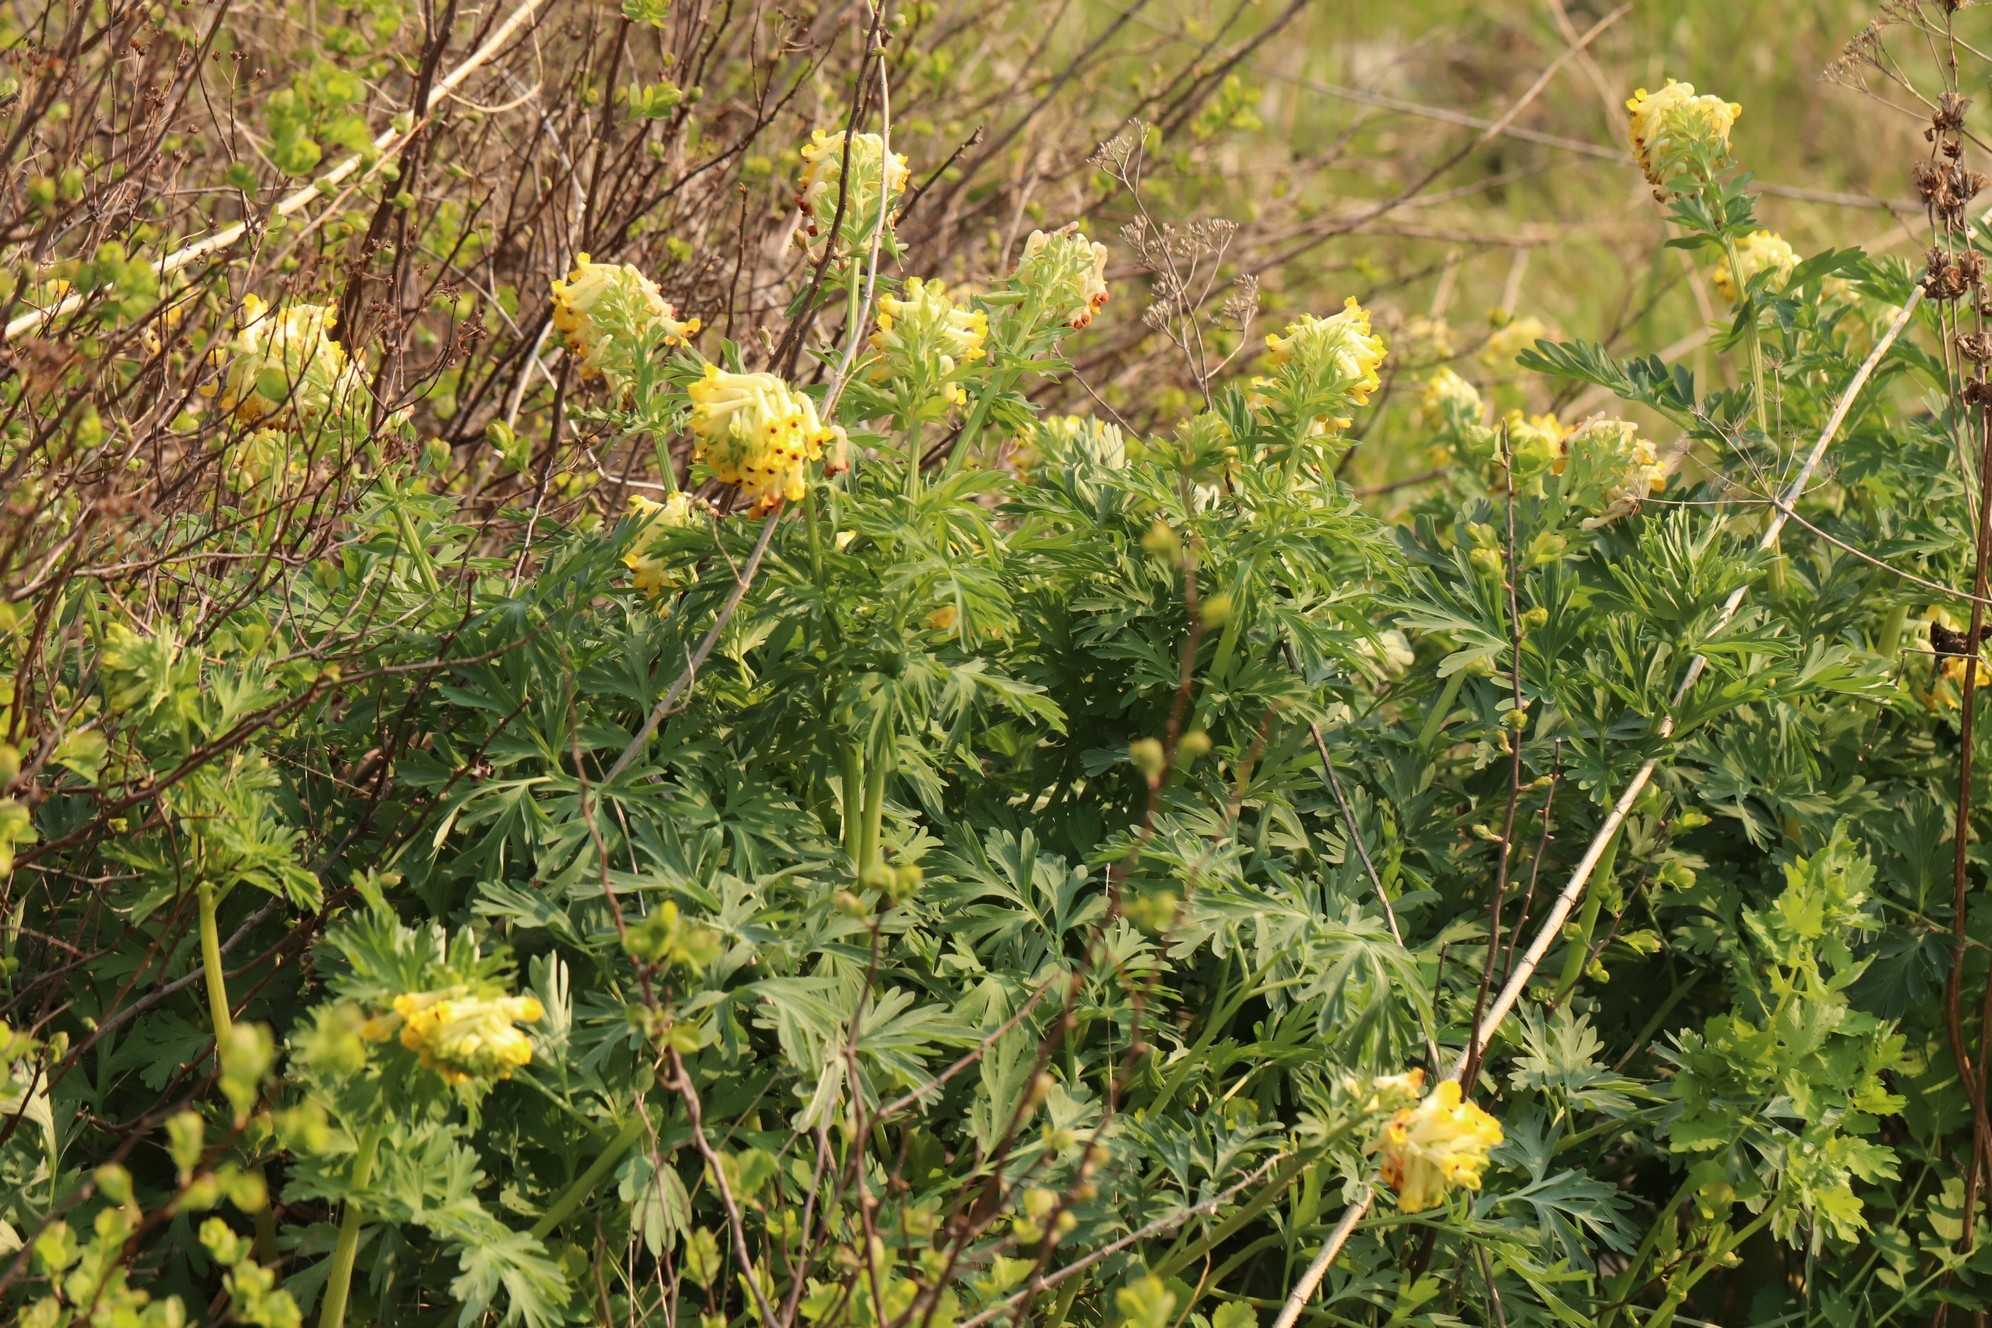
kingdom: Plantae
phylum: Tracheophyta
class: Magnoliopsida
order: Ranunculales
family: Papaveraceae
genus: Corydalis
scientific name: Corydalis nobilis
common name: Siberian corydalis
